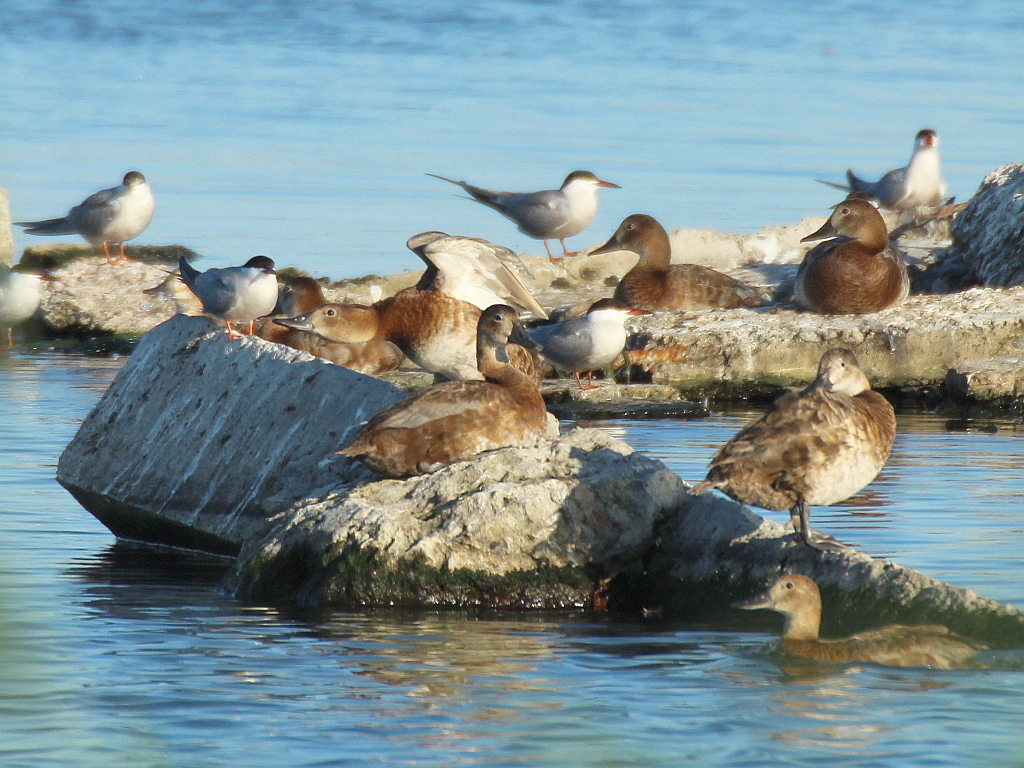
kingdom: Animalia
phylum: Chordata
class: Aves
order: Anseriformes
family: Anatidae
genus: Aythya
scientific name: Aythya ferina
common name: Common pochard
